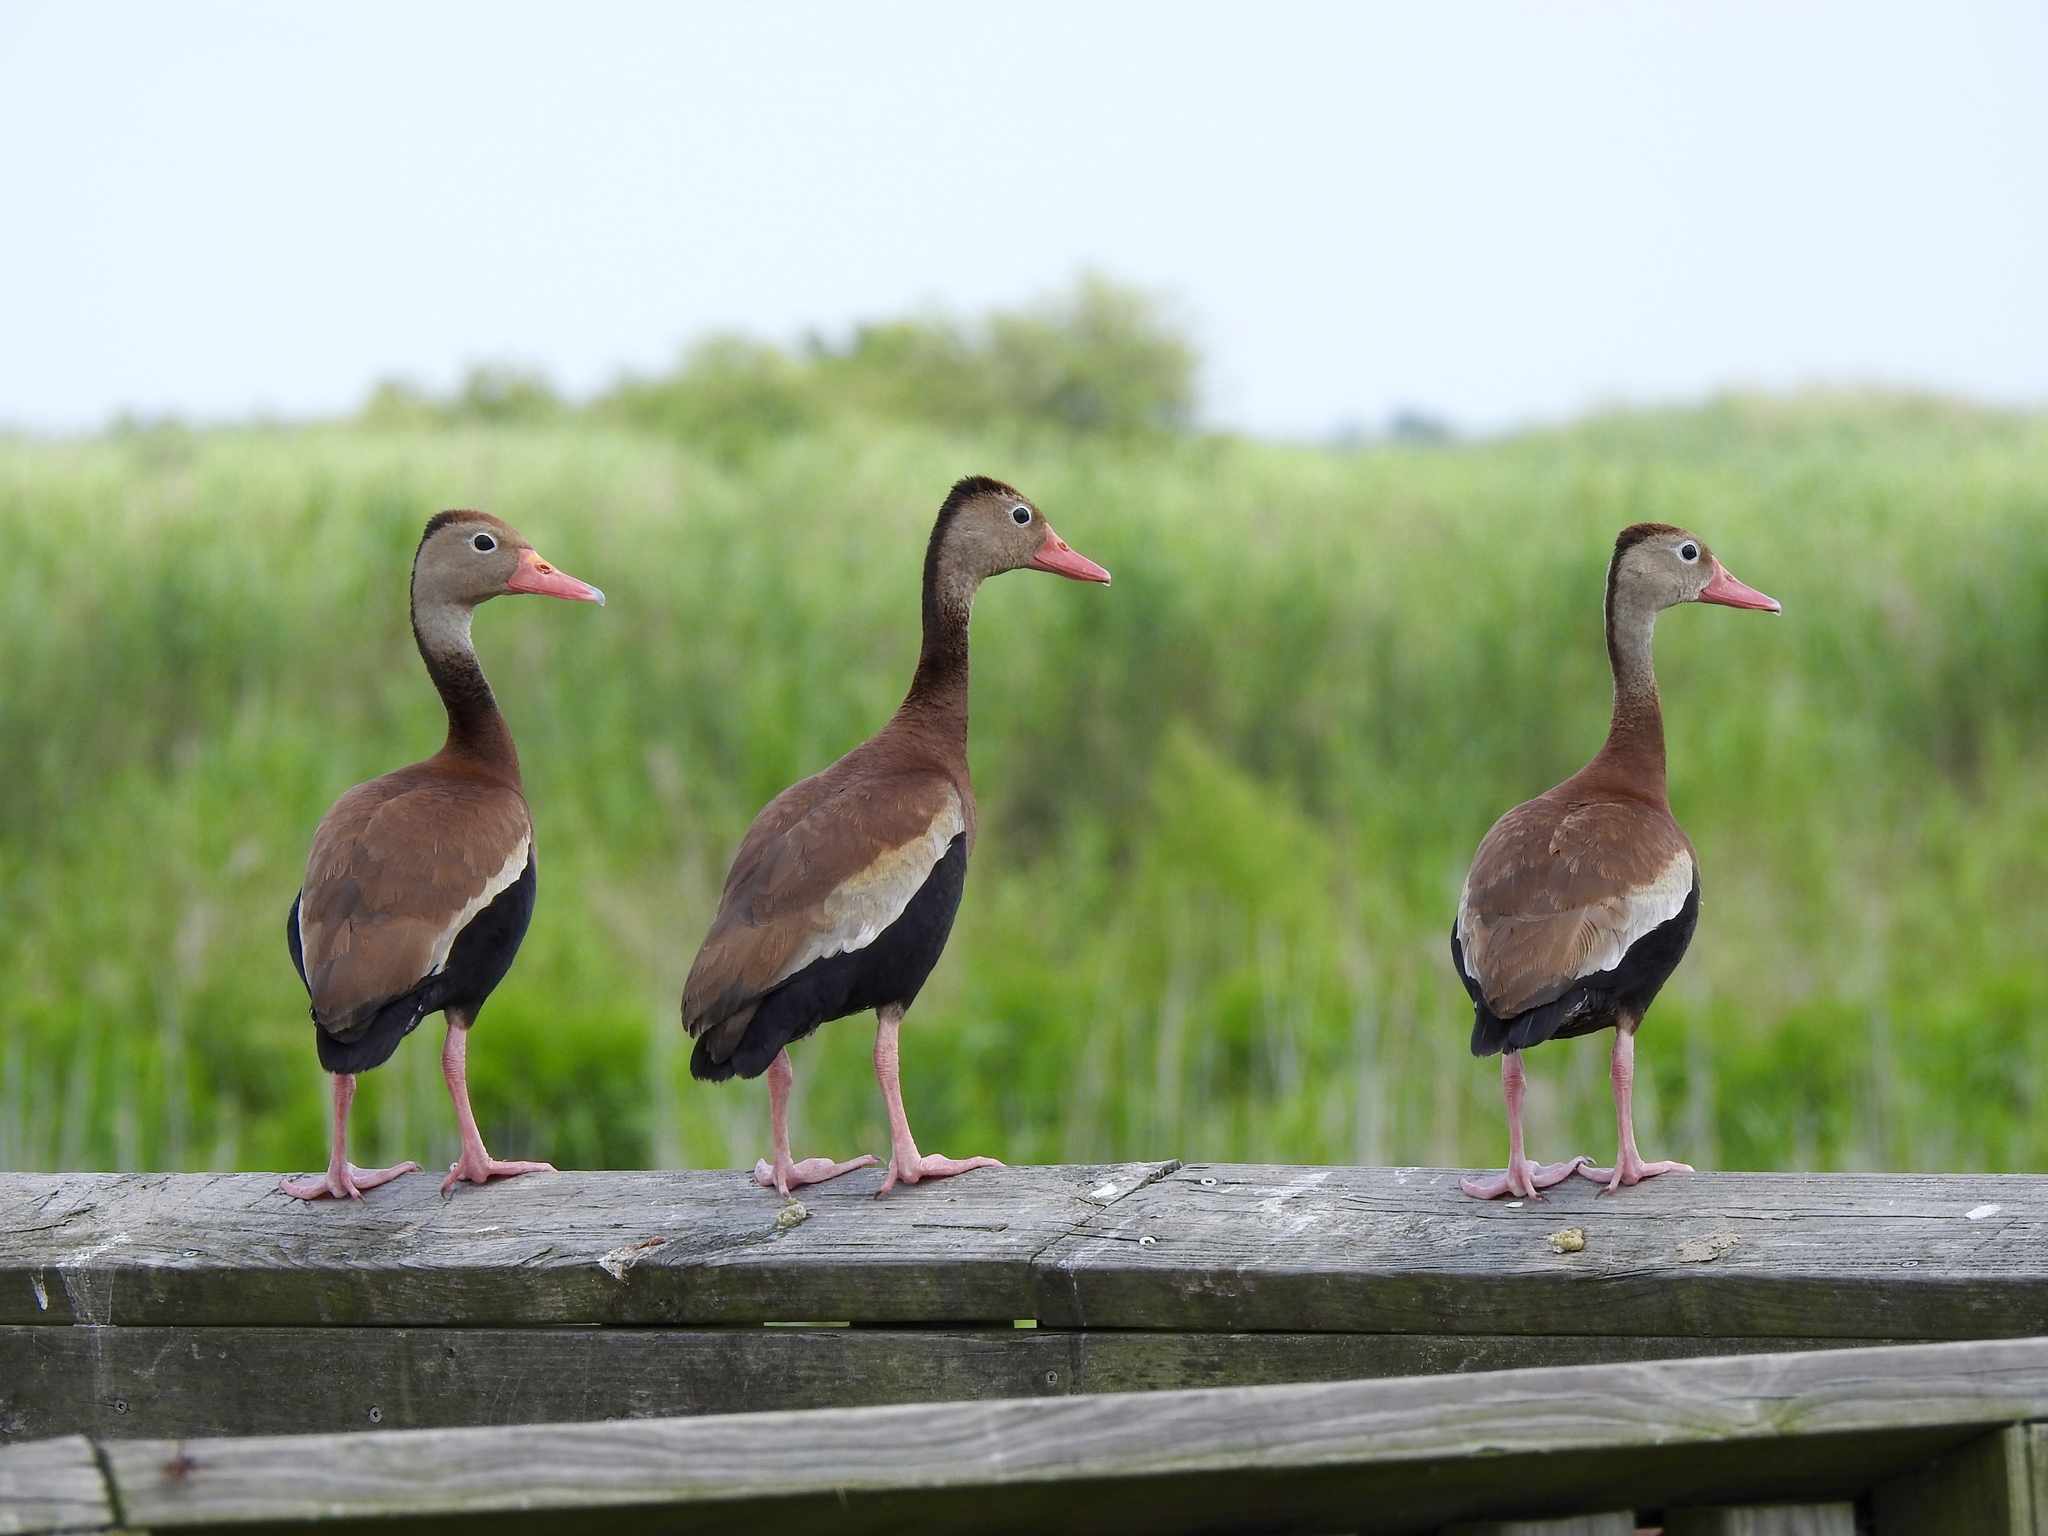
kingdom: Animalia
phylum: Chordata
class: Aves
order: Anseriformes
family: Anatidae
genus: Dendrocygna
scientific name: Dendrocygna autumnalis
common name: Black-bellied whistling duck
